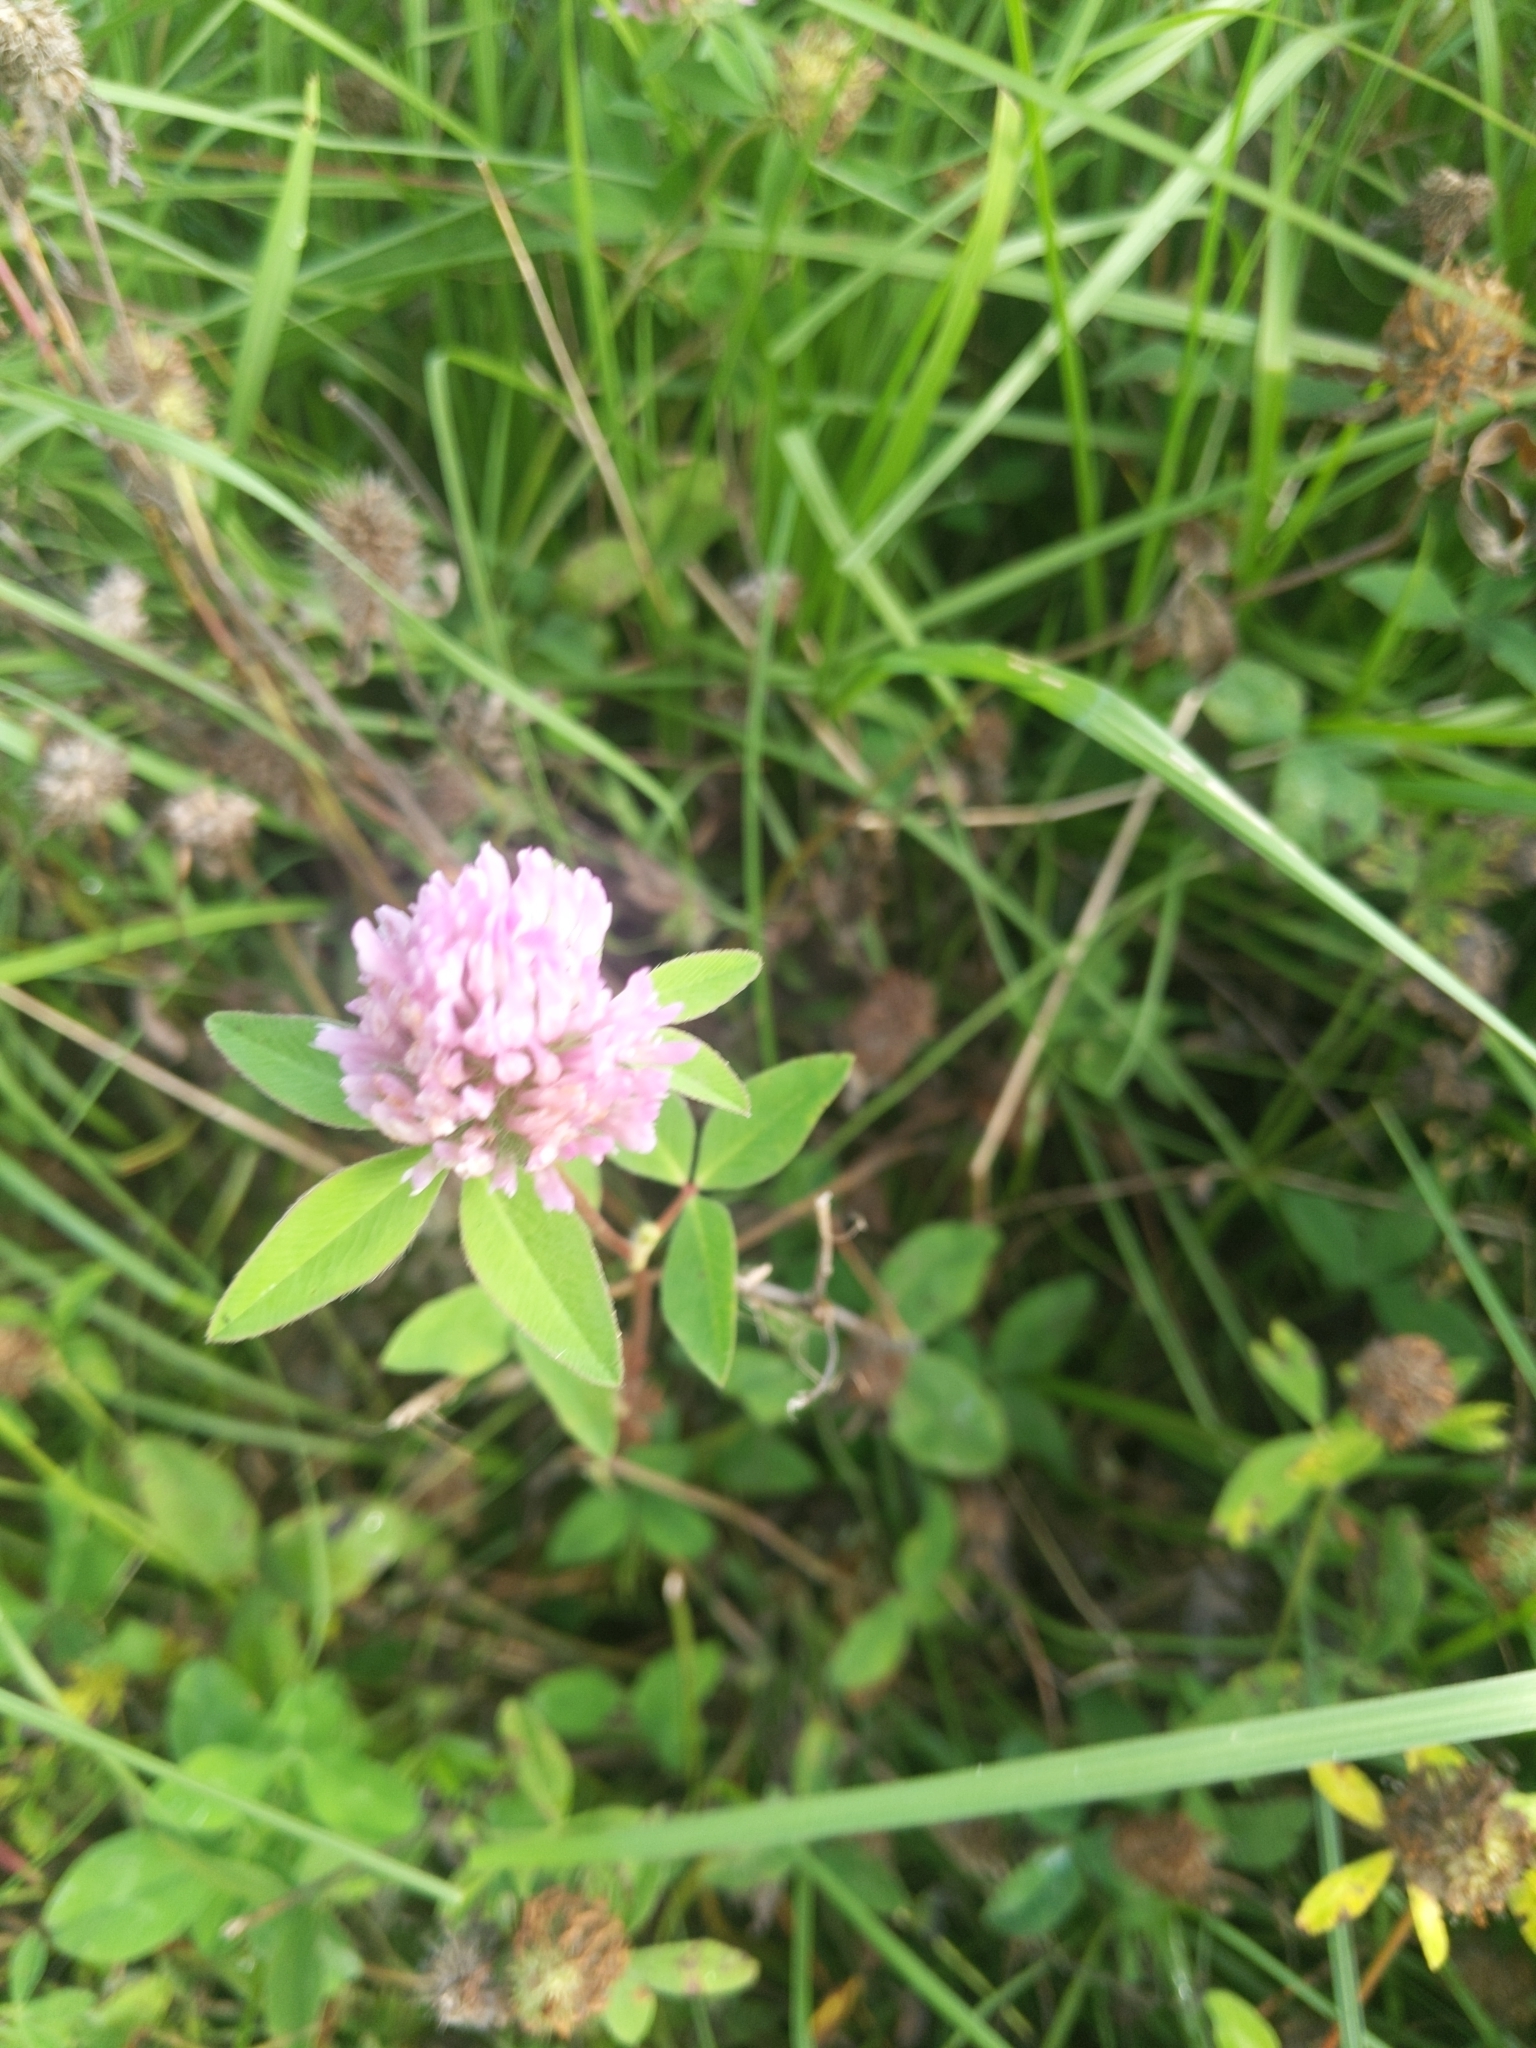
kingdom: Plantae
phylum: Tracheophyta
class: Magnoliopsida
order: Fabales
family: Fabaceae
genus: Trifolium
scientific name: Trifolium pratense
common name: Red clover
